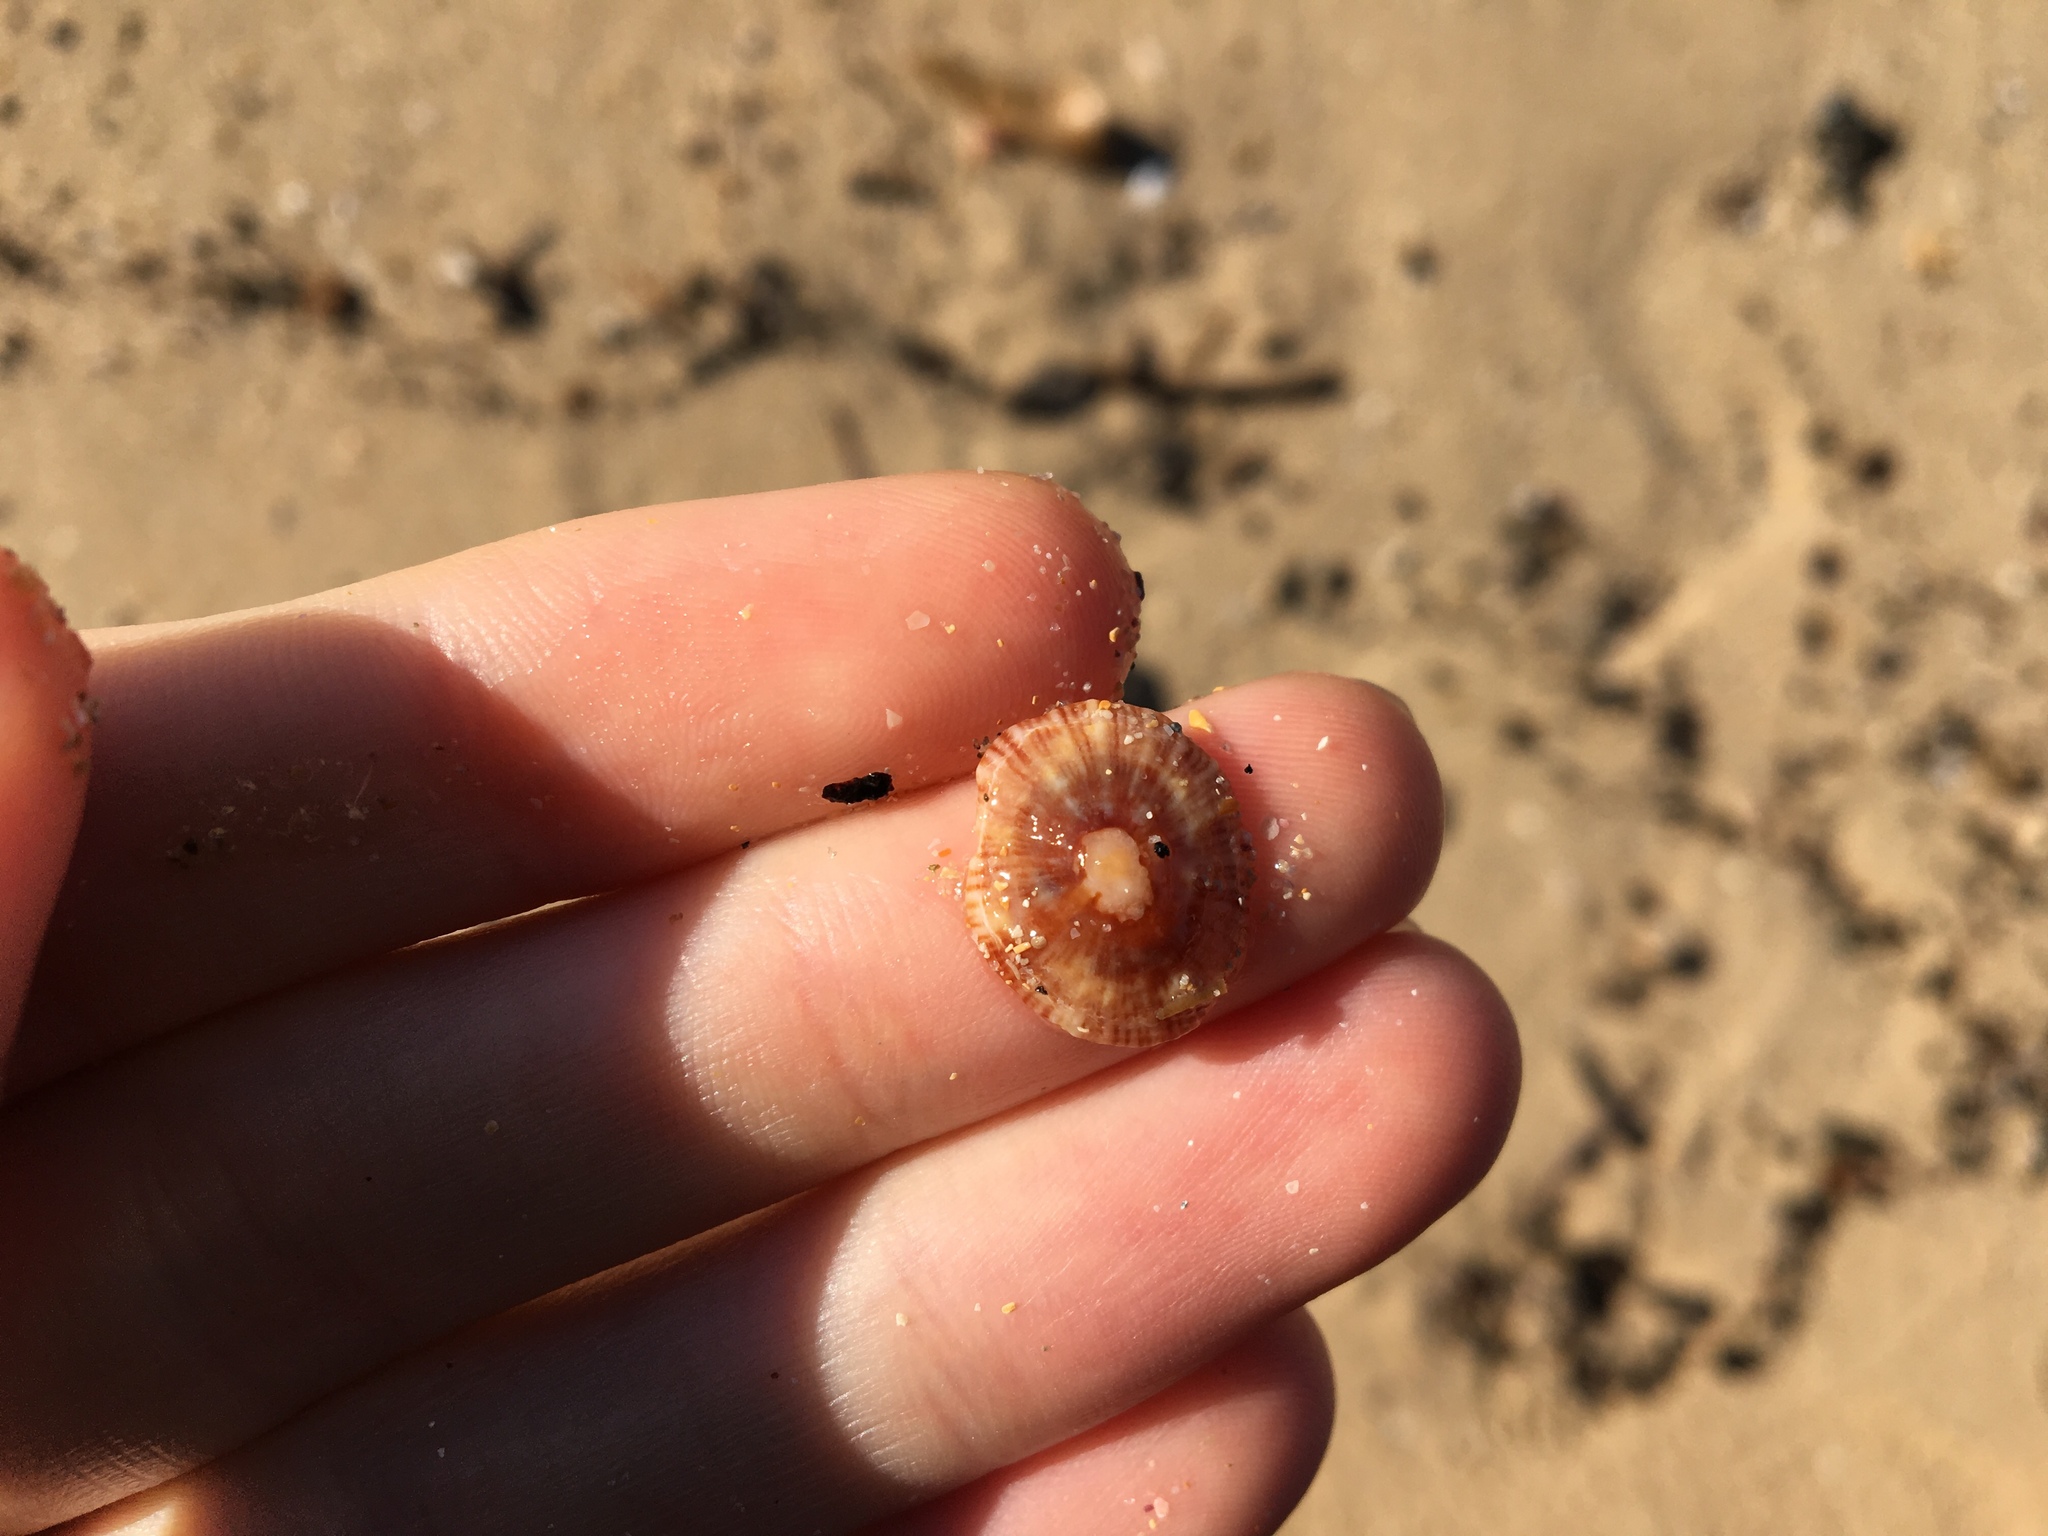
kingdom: Animalia
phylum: Mollusca
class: Gastropoda
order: Siphonariida
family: Siphonariidae
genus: Siphonaria
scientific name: Siphonaria denticulata
